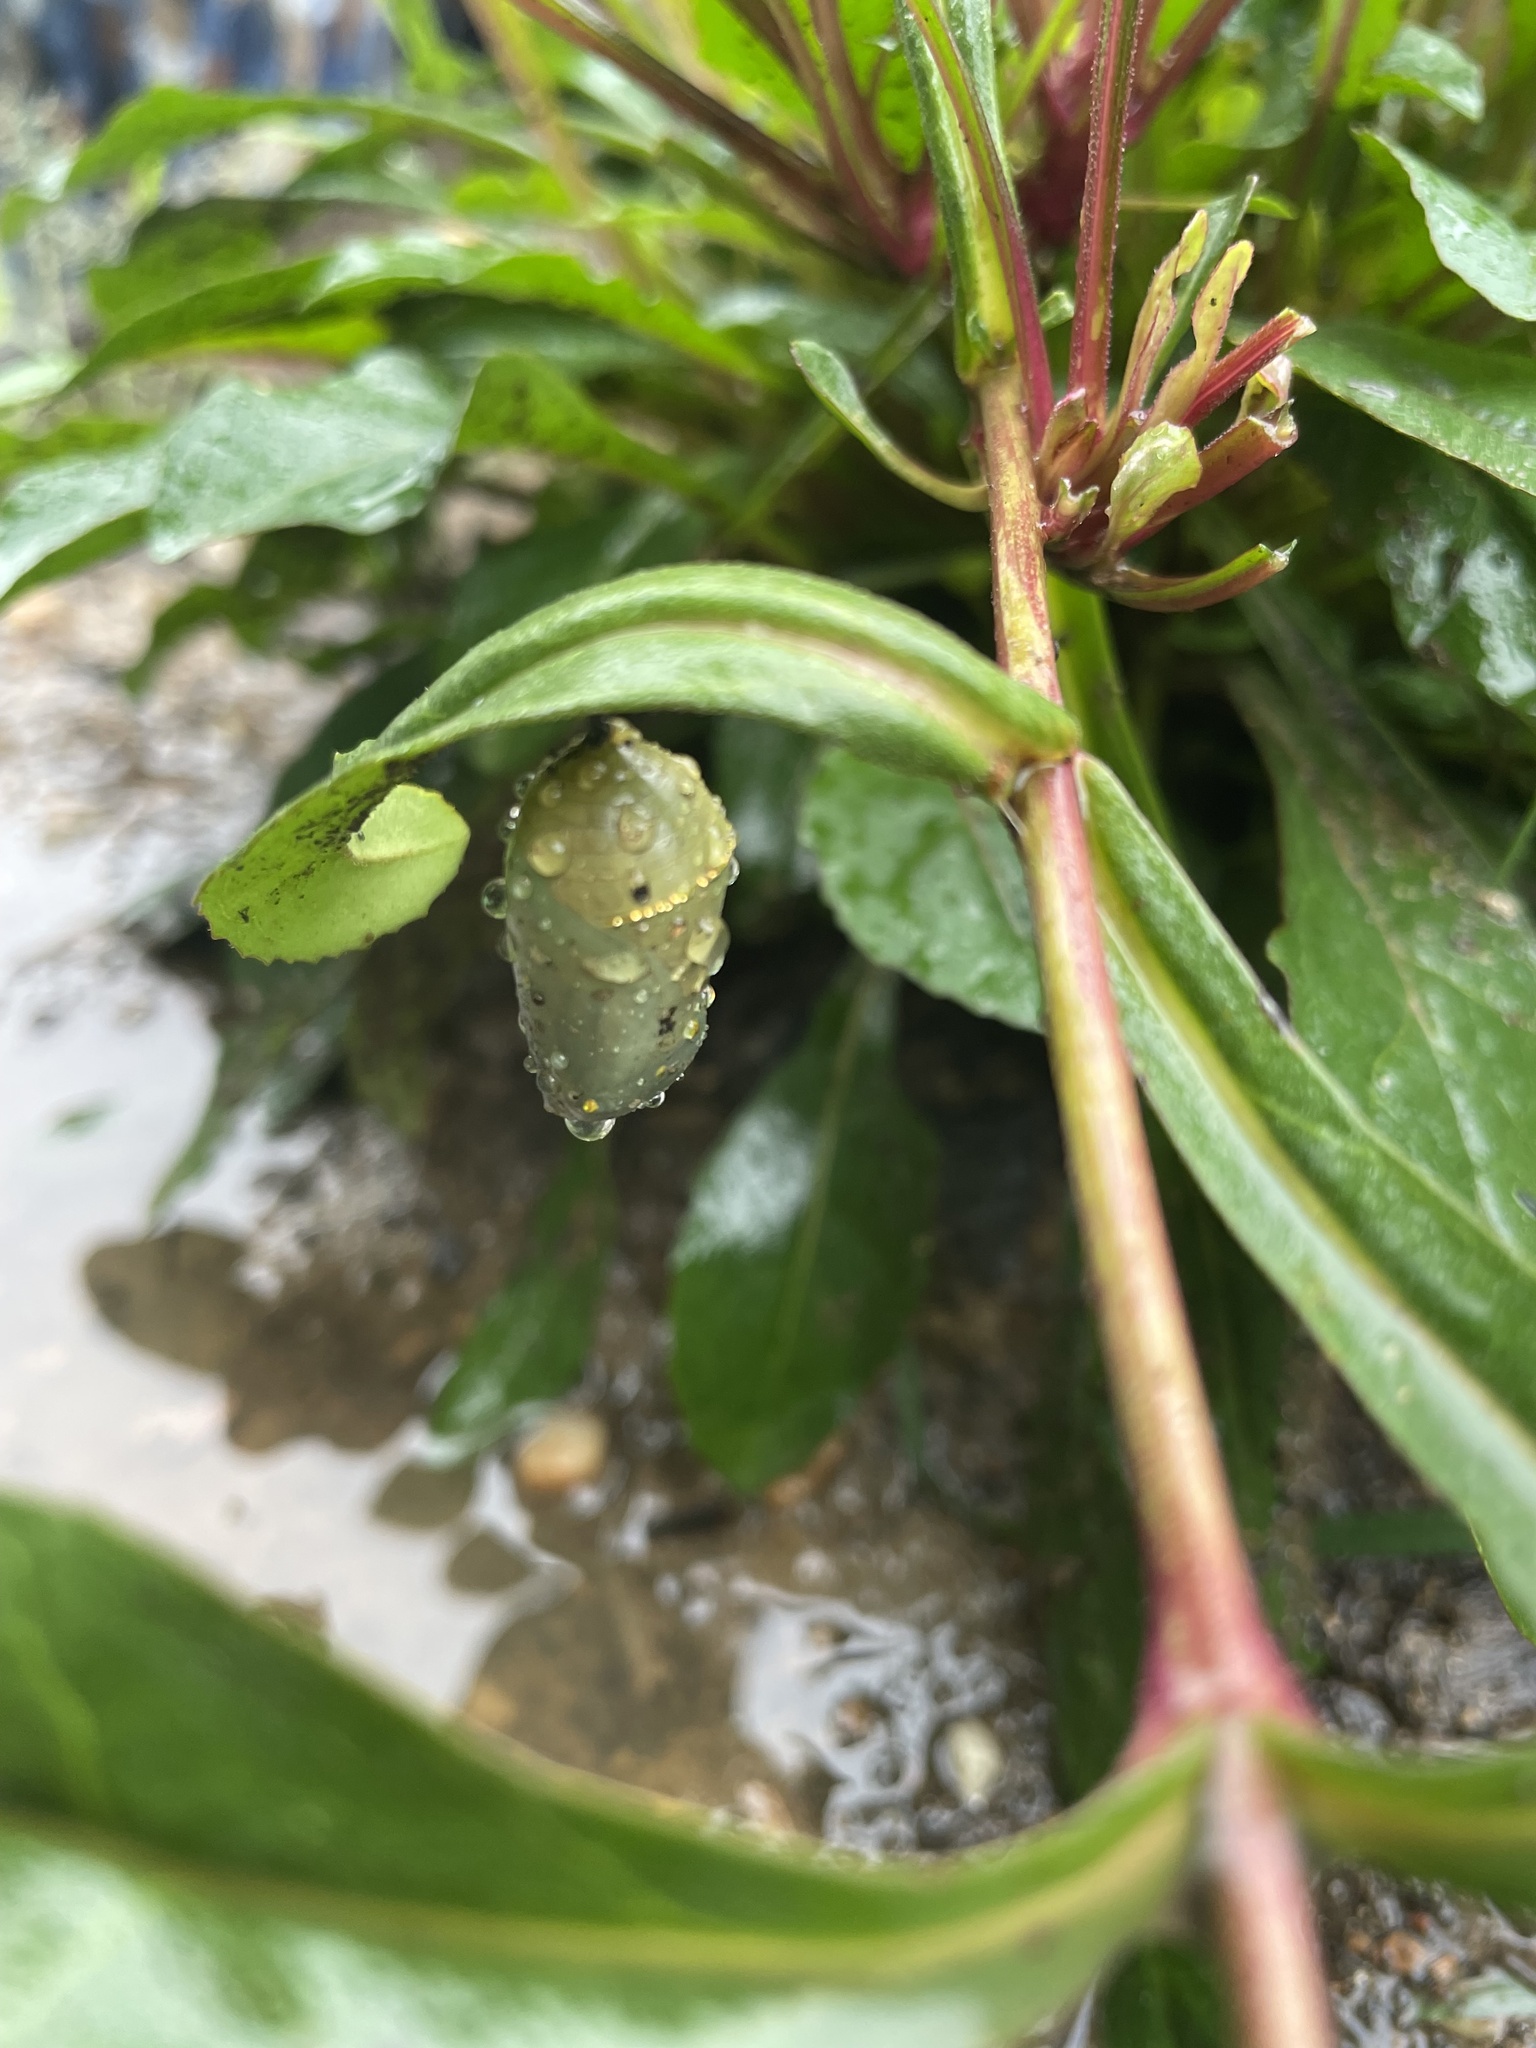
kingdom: Animalia
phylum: Arthropoda
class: Insecta
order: Lepidoptera
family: Nymphalidae
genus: Danaus
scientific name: Danaus plexippus
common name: Monarch
